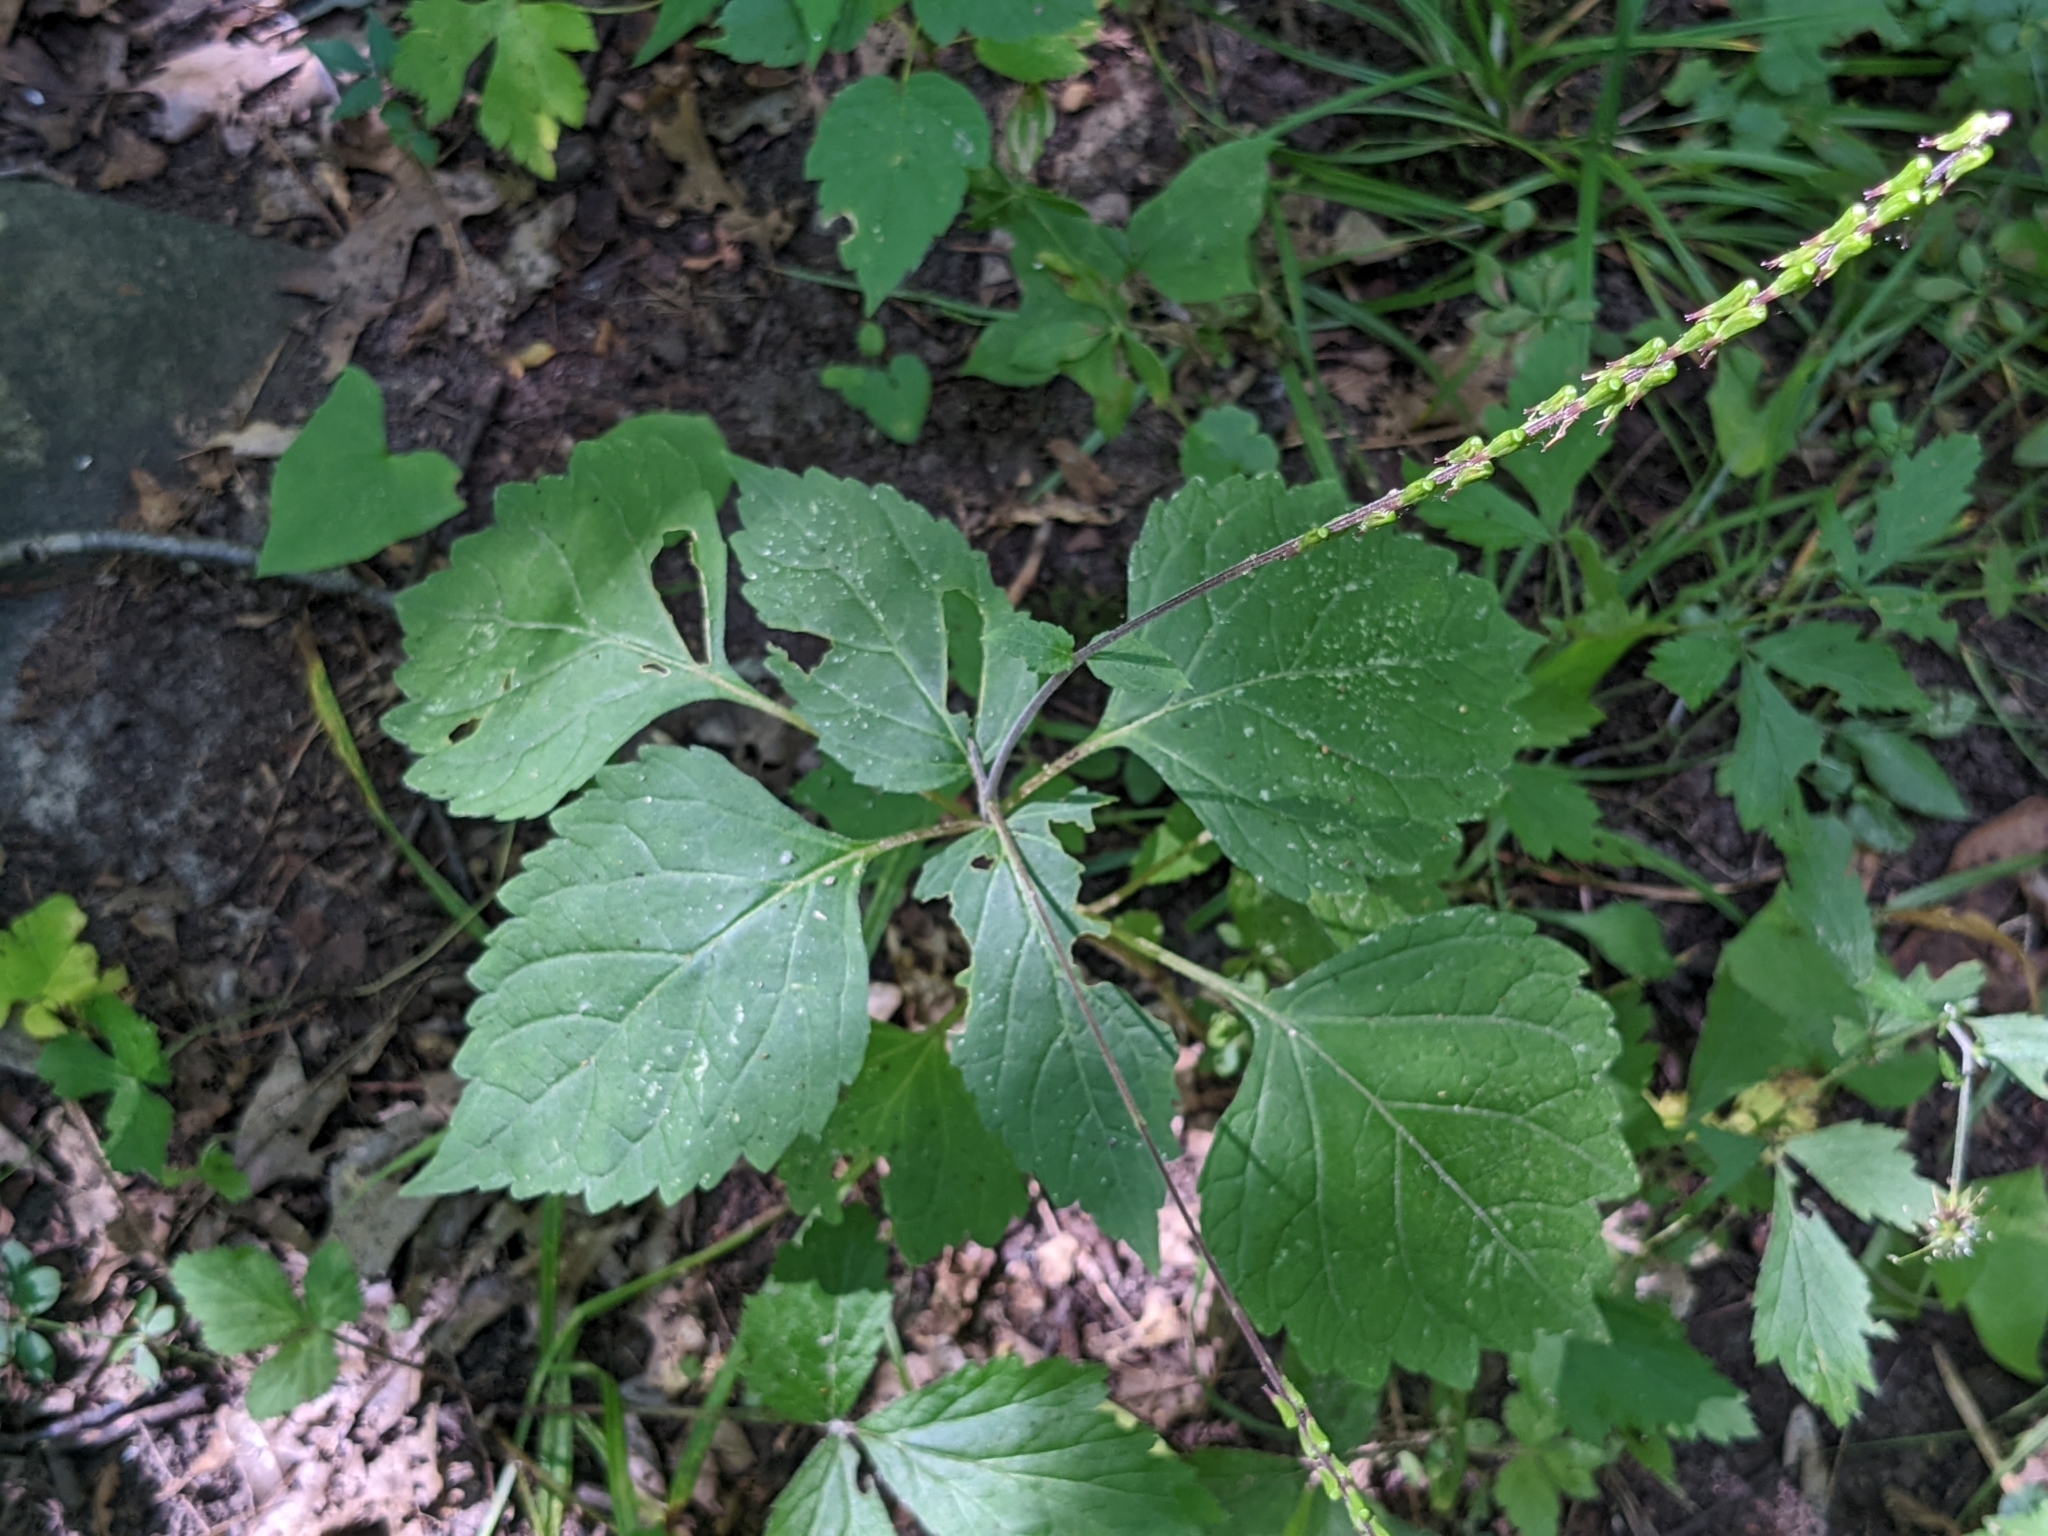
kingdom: Plantae
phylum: Tracheophyta
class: Magnoliopsida
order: Lamiales
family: Phrymaceae
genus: Phryma
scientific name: Phryma leptostachya
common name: American lopseed
